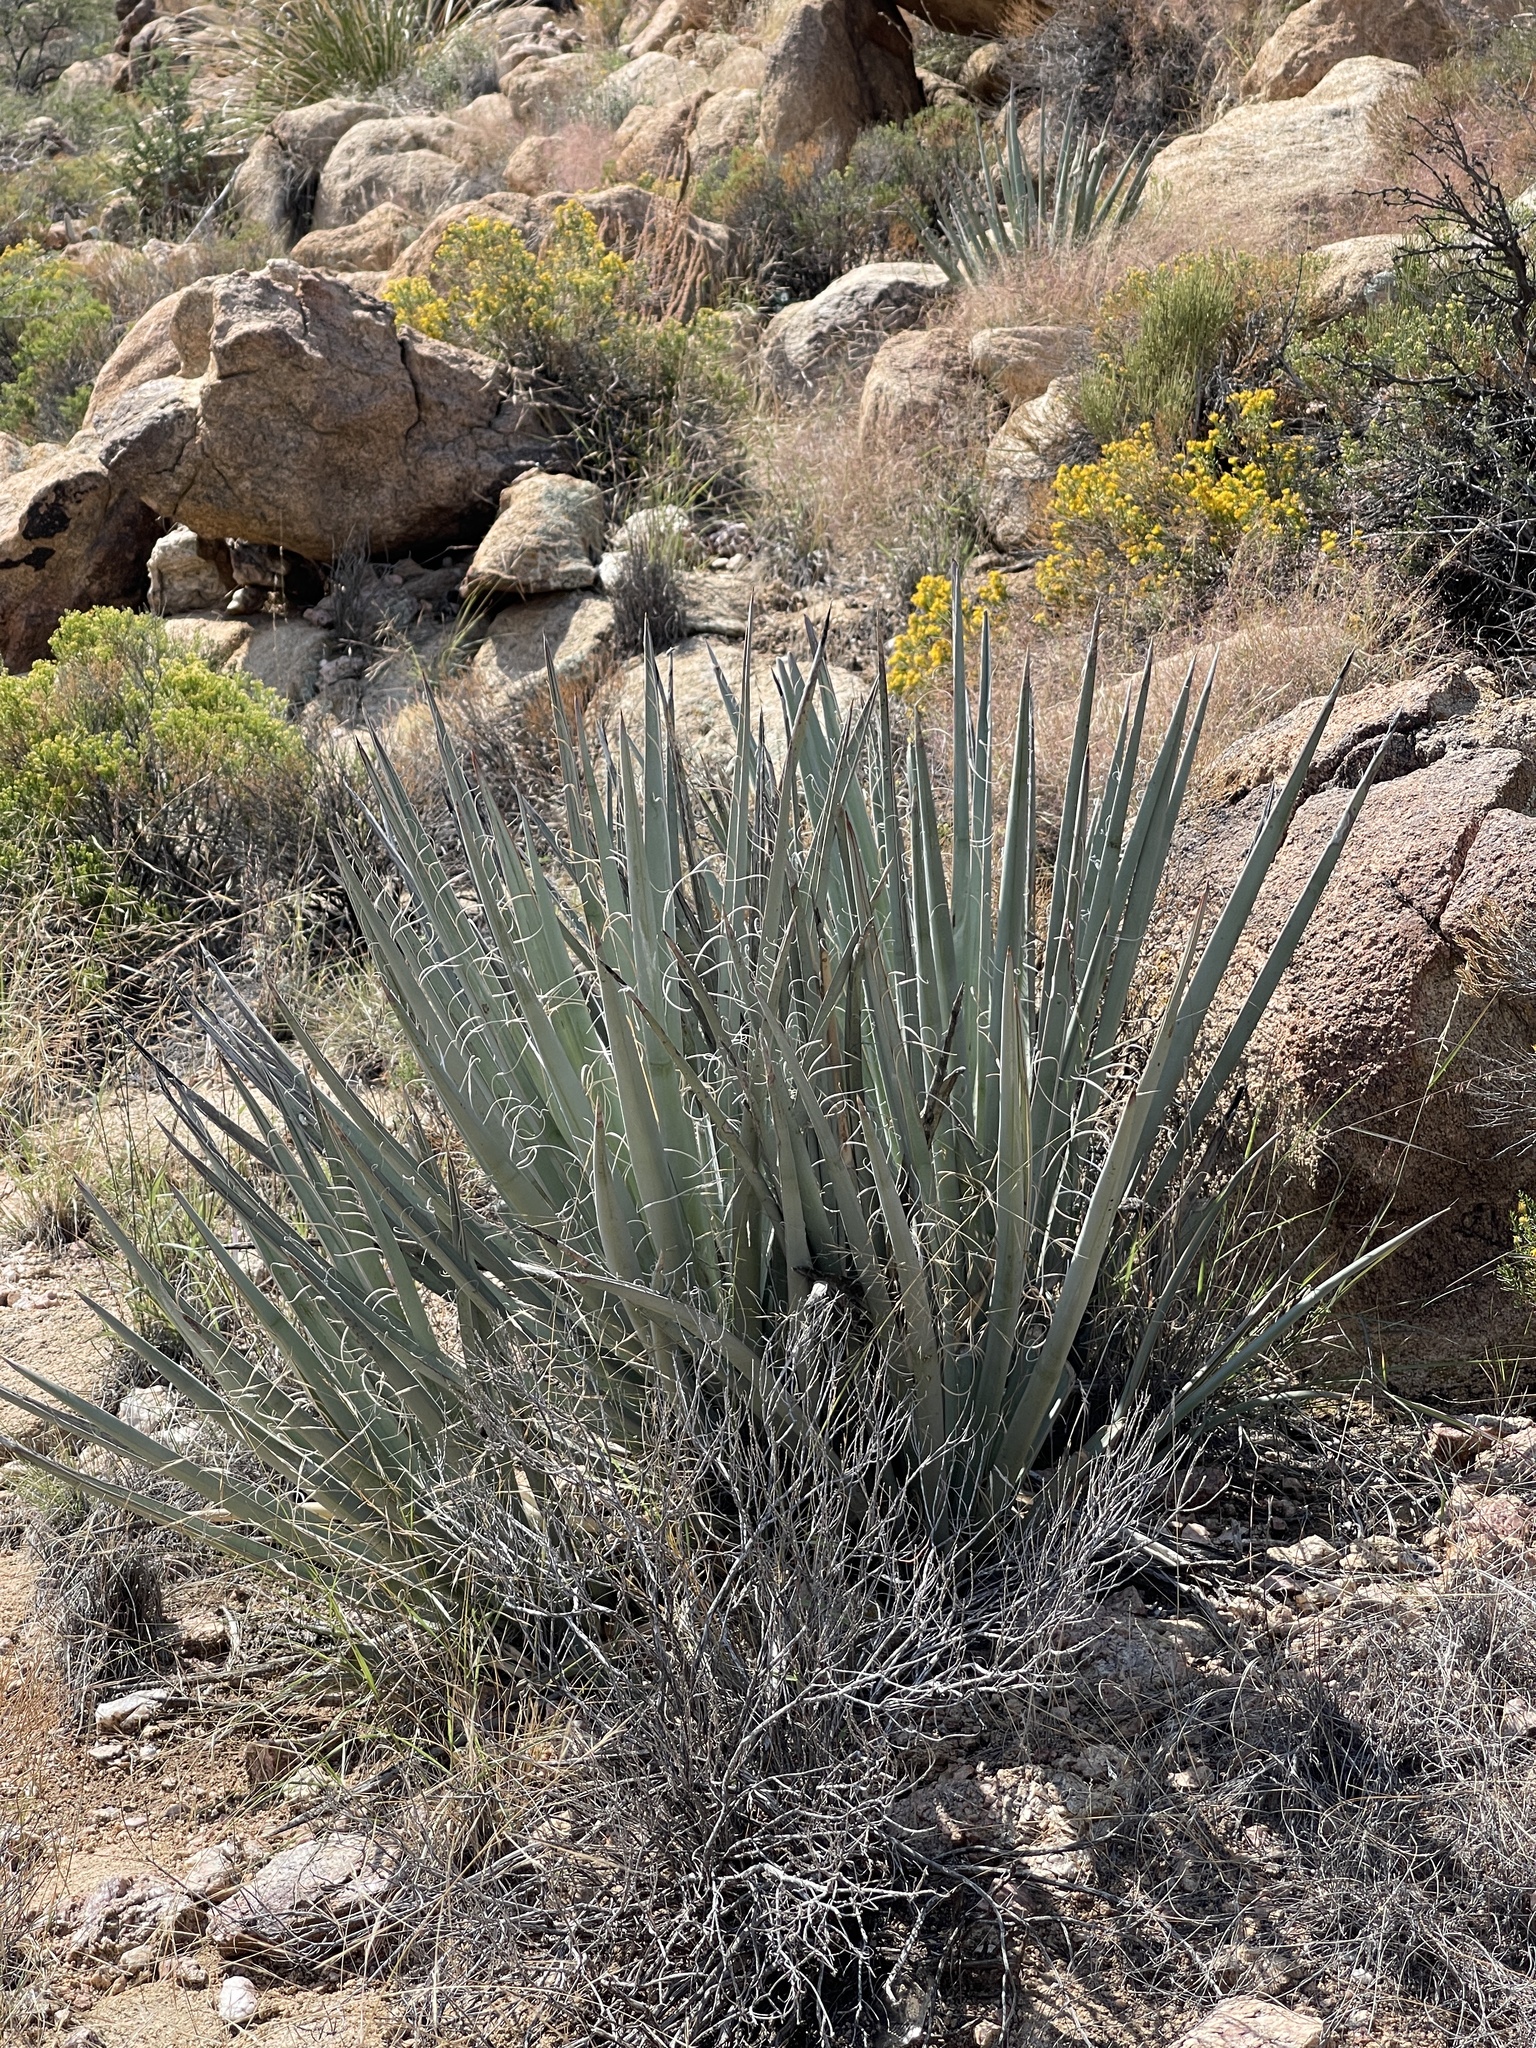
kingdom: Plantae
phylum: Tracheophyta
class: Liliopsida
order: Asparagales
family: Asparagaceae
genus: Yucca
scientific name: Yucca baccata
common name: Banana yucca
